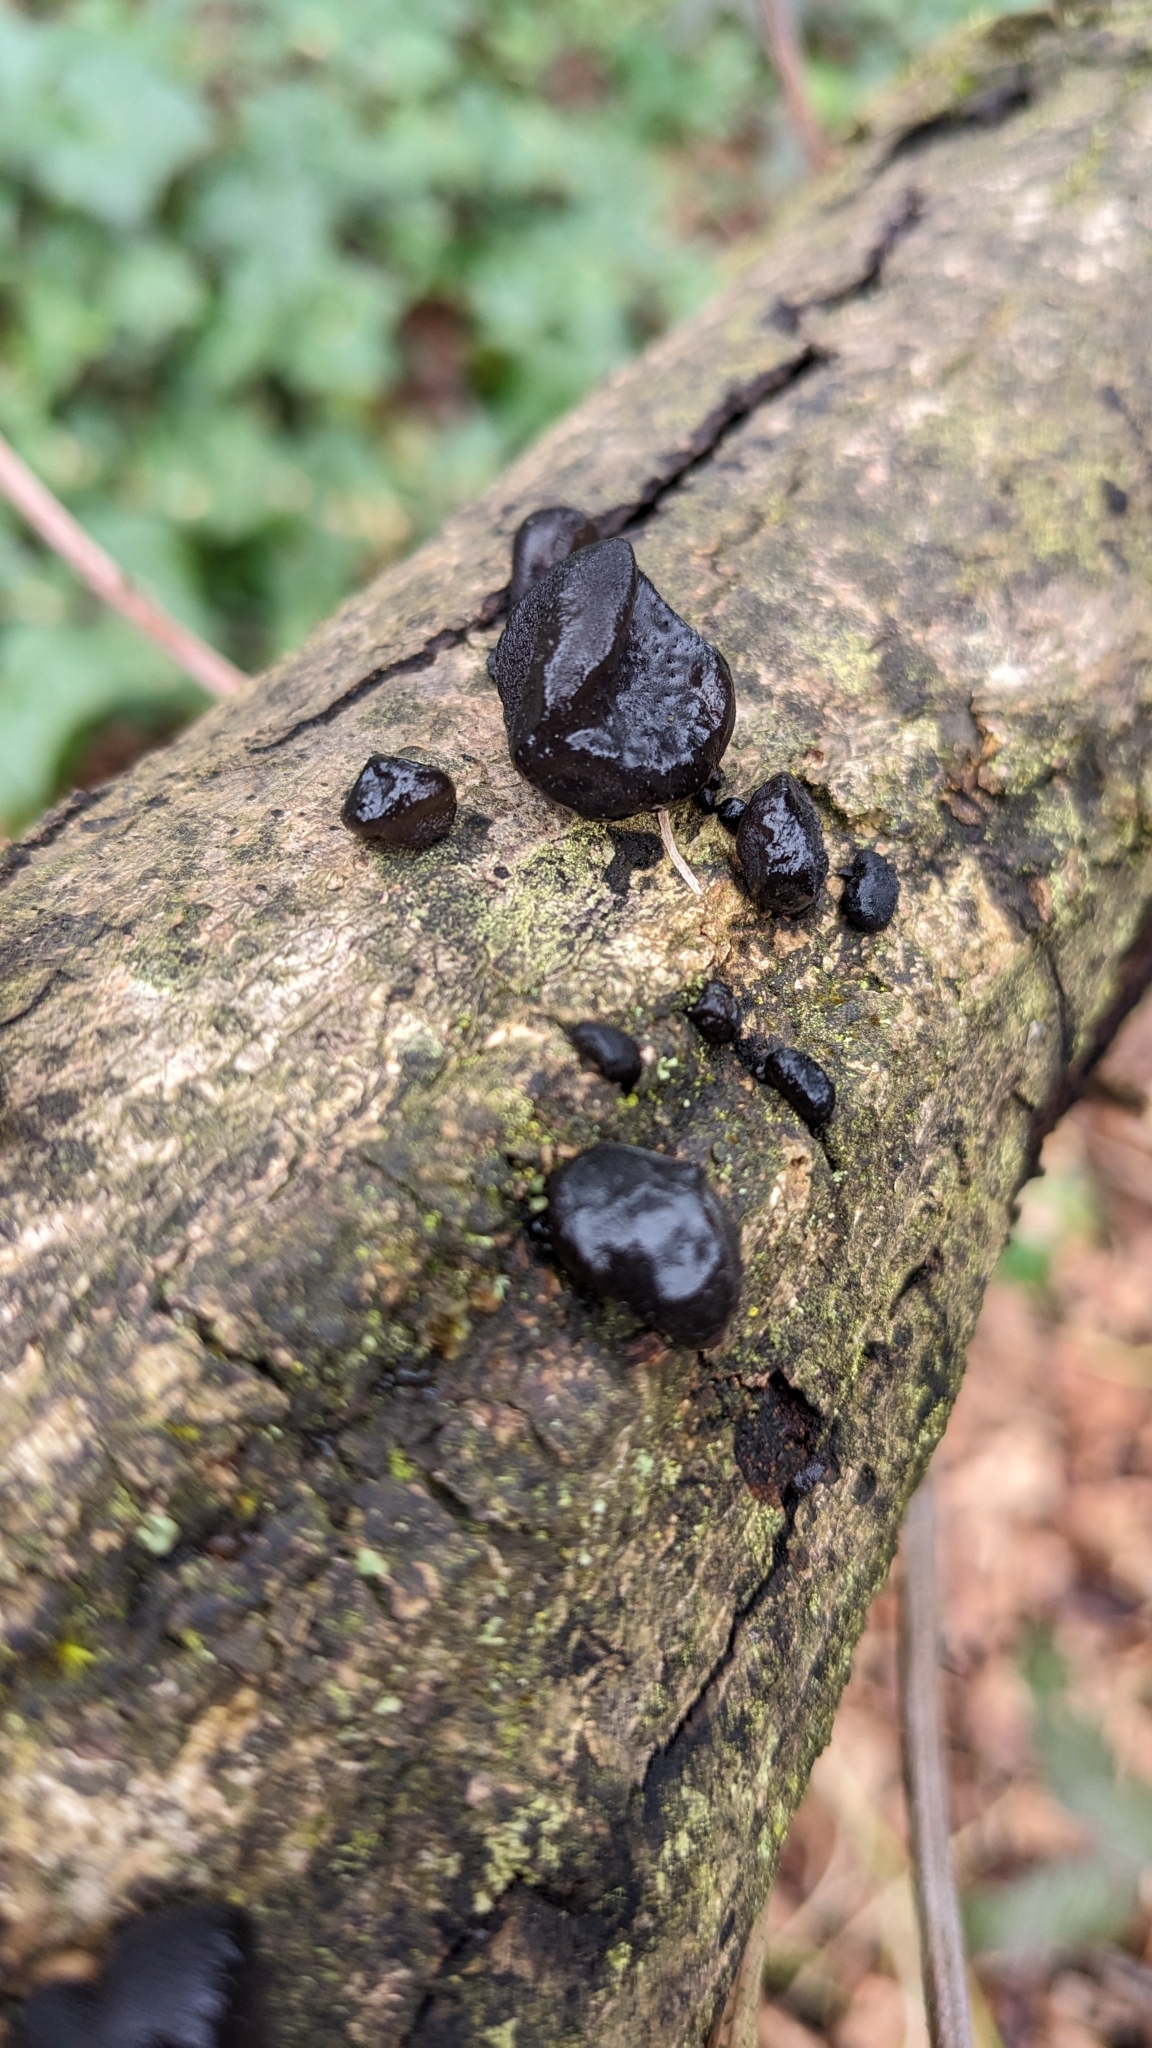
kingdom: Fungi
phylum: Basidiomycota
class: Agaricomycetes
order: Auriculariales
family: Auriculariaceae
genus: Exidia
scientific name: Exidia glandulosa
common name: Witches' butter
